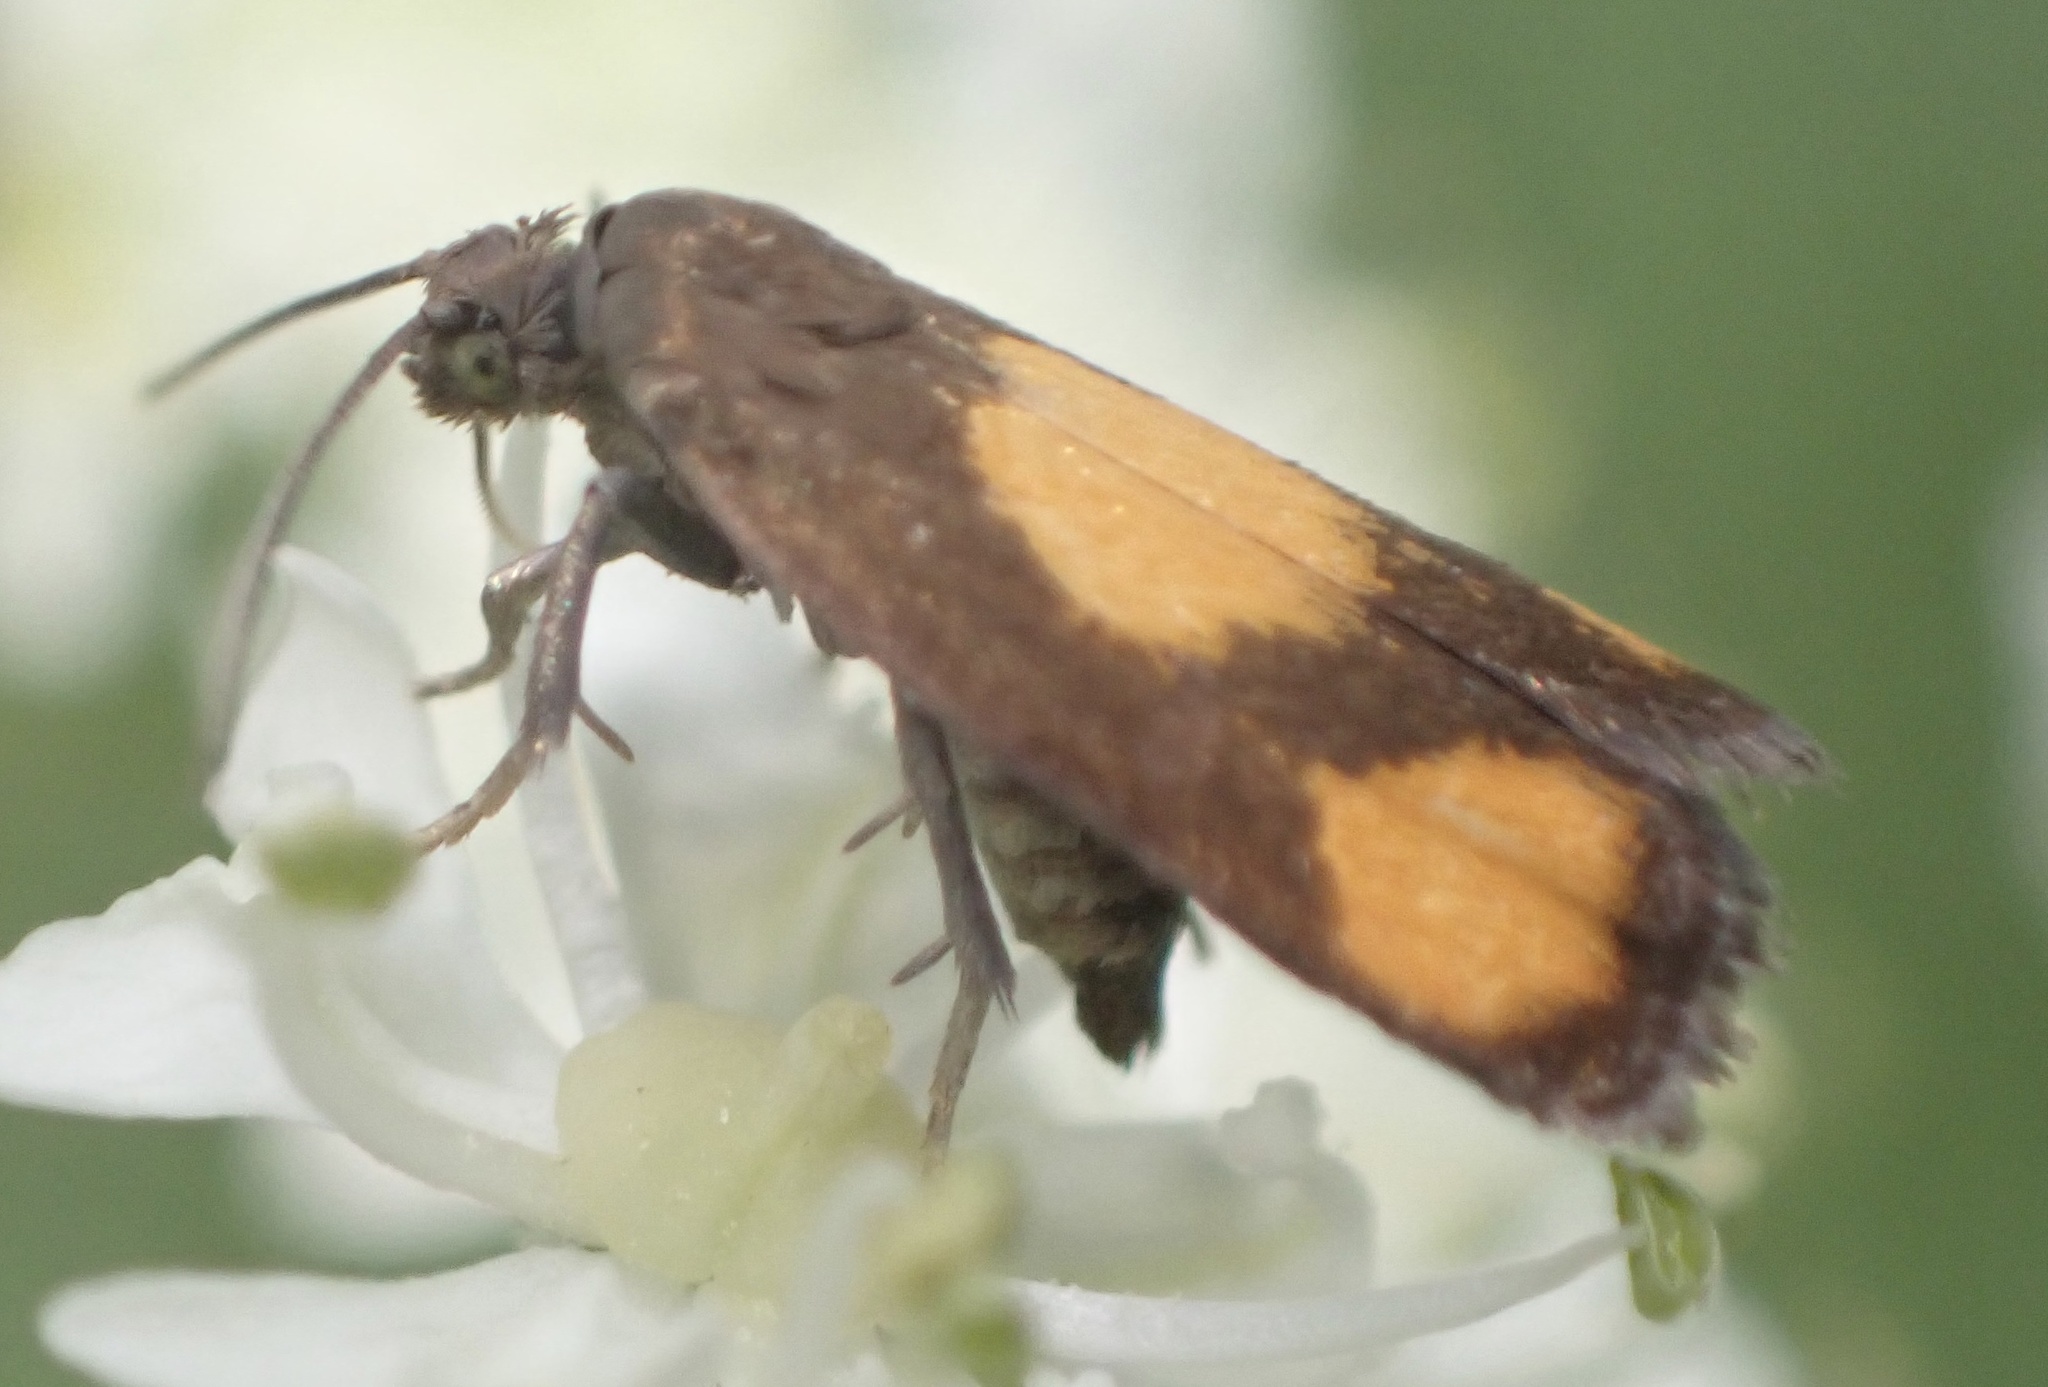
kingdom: Animalia
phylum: Arthropoda
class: Insecta
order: Lepidoptera
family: Tortricidae
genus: Pammene
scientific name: Pammene aurana
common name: Orange-spot piercer
